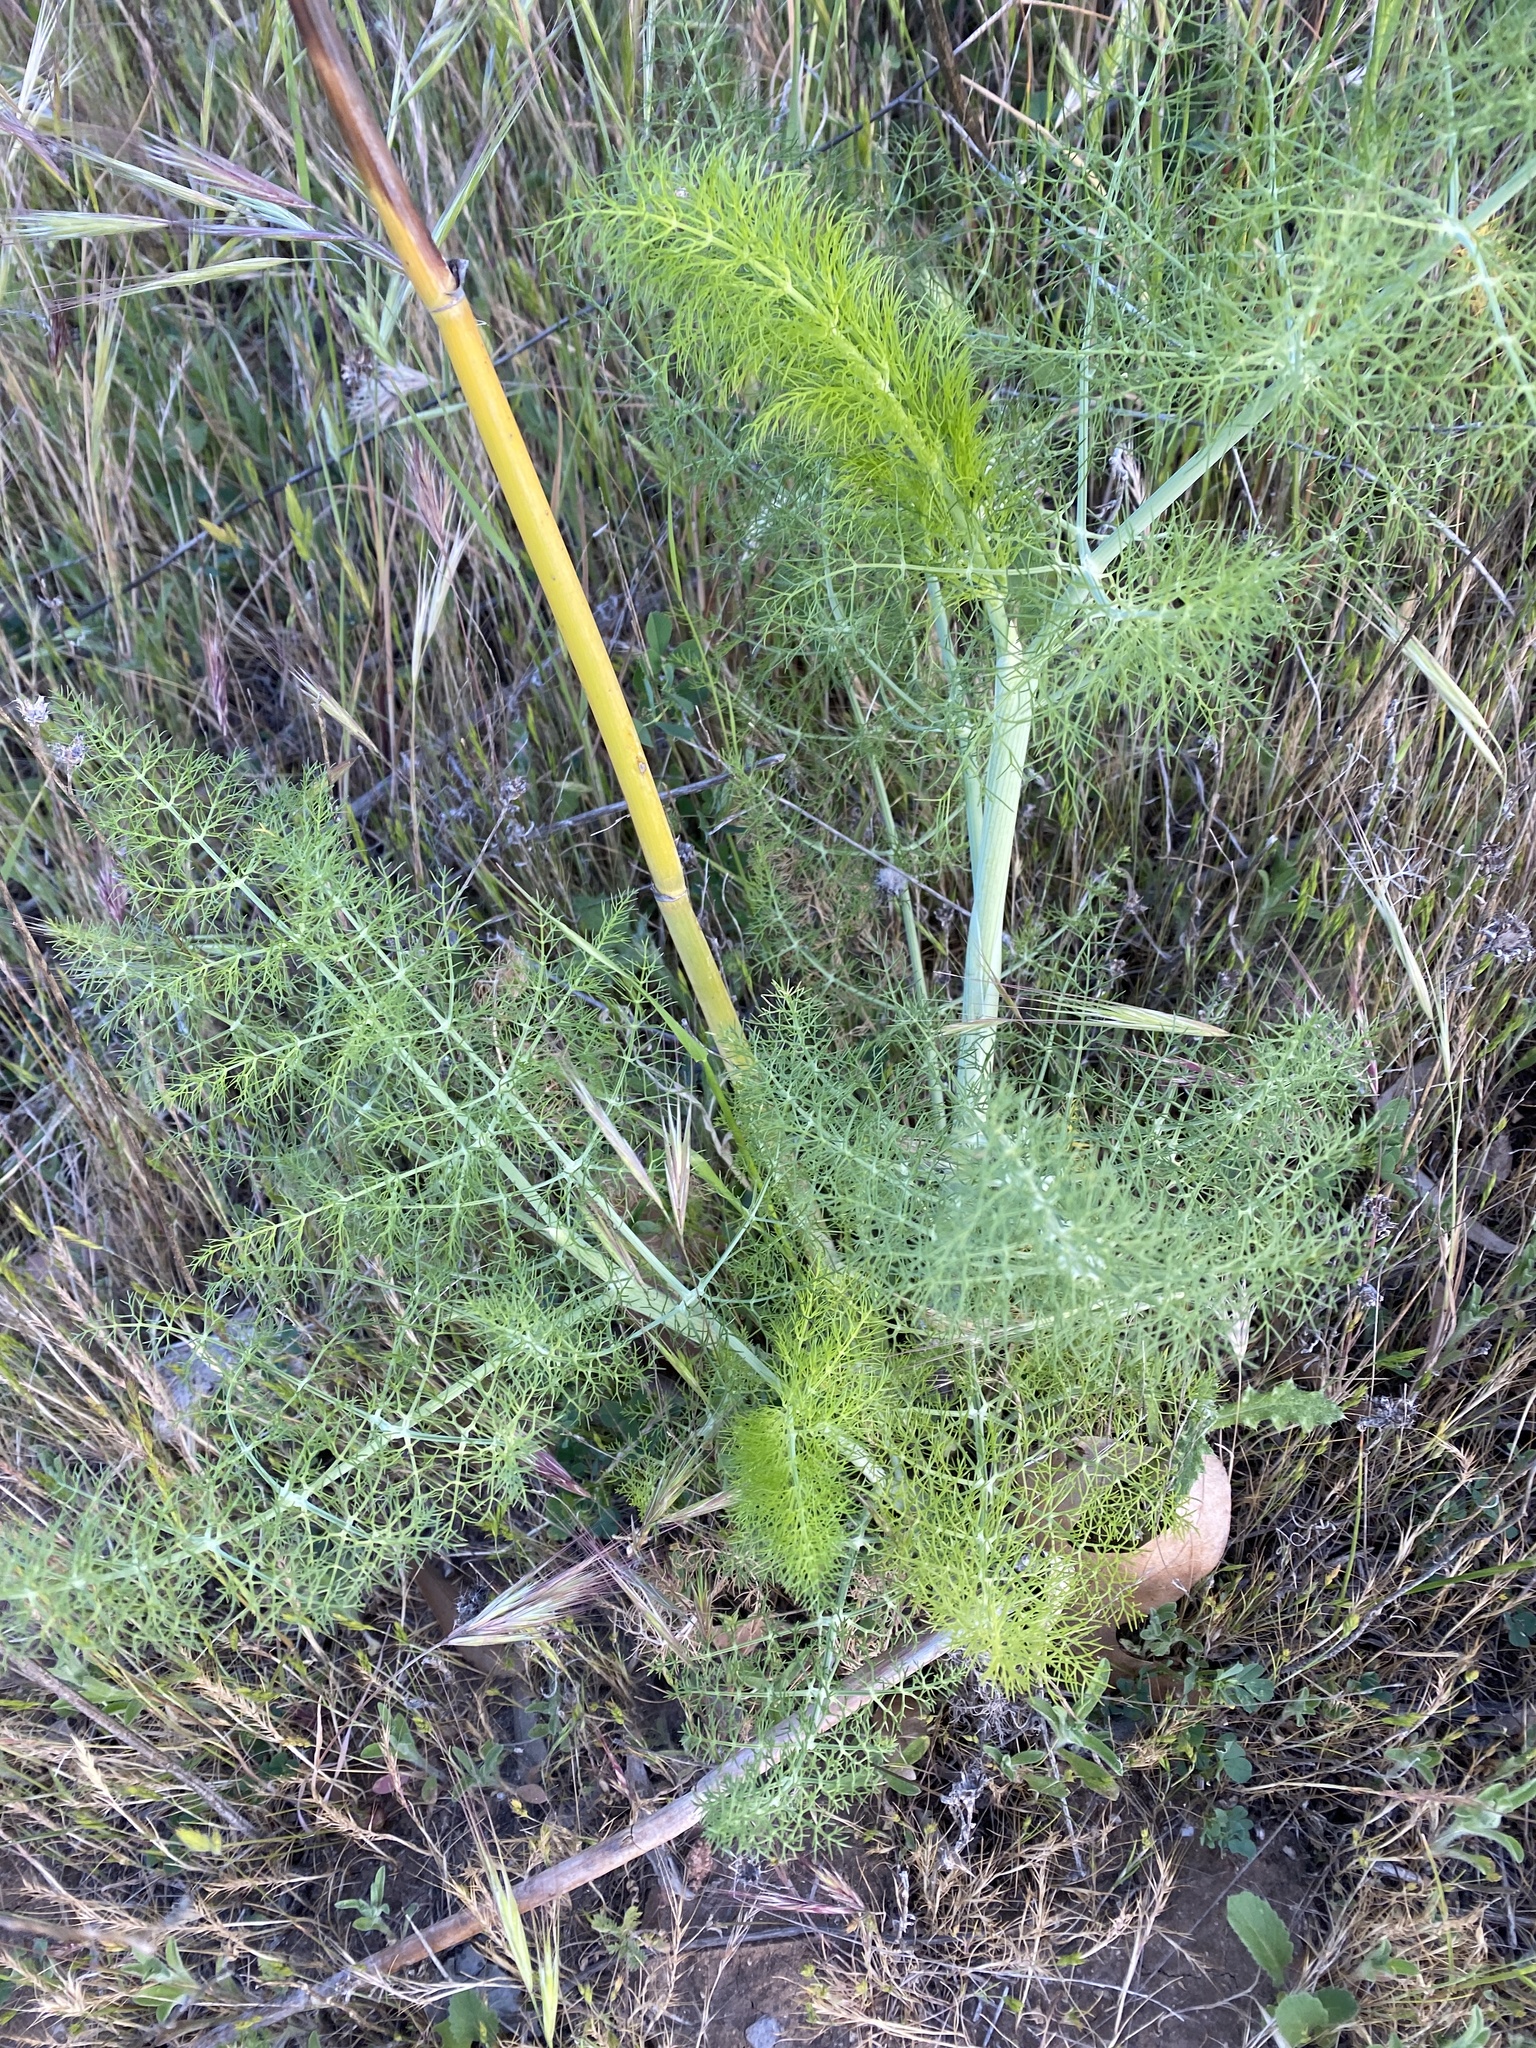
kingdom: Plantae
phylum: Tracheophyta
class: Magnoliopsida
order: Apiales
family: Apiaceae
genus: Foeniculum
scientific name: Foeniculum vulgare
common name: Fennel
